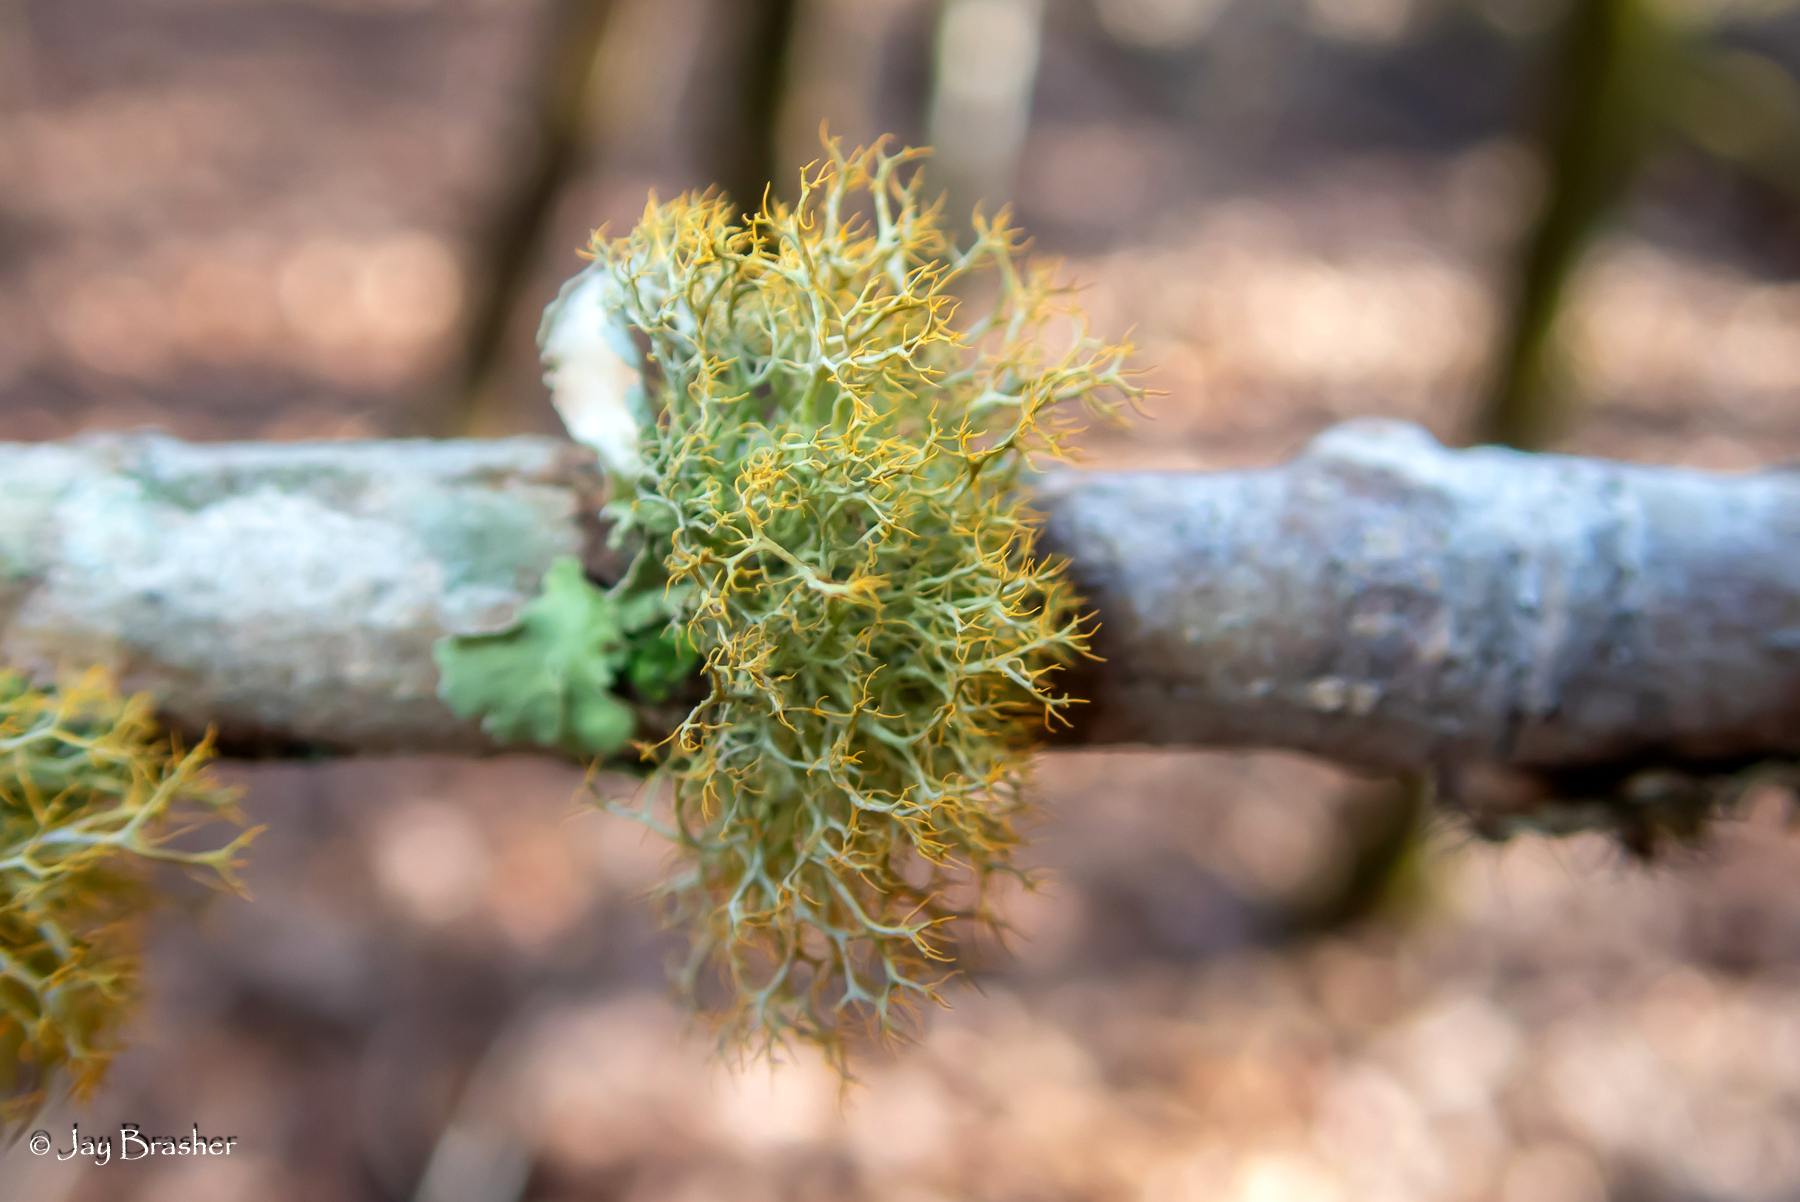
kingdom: Fungi
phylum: Ascomycota
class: Lecanoromycetes
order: Teloschistales
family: Teloschistaceae
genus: Teloschistes
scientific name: Teloschistes exilis
